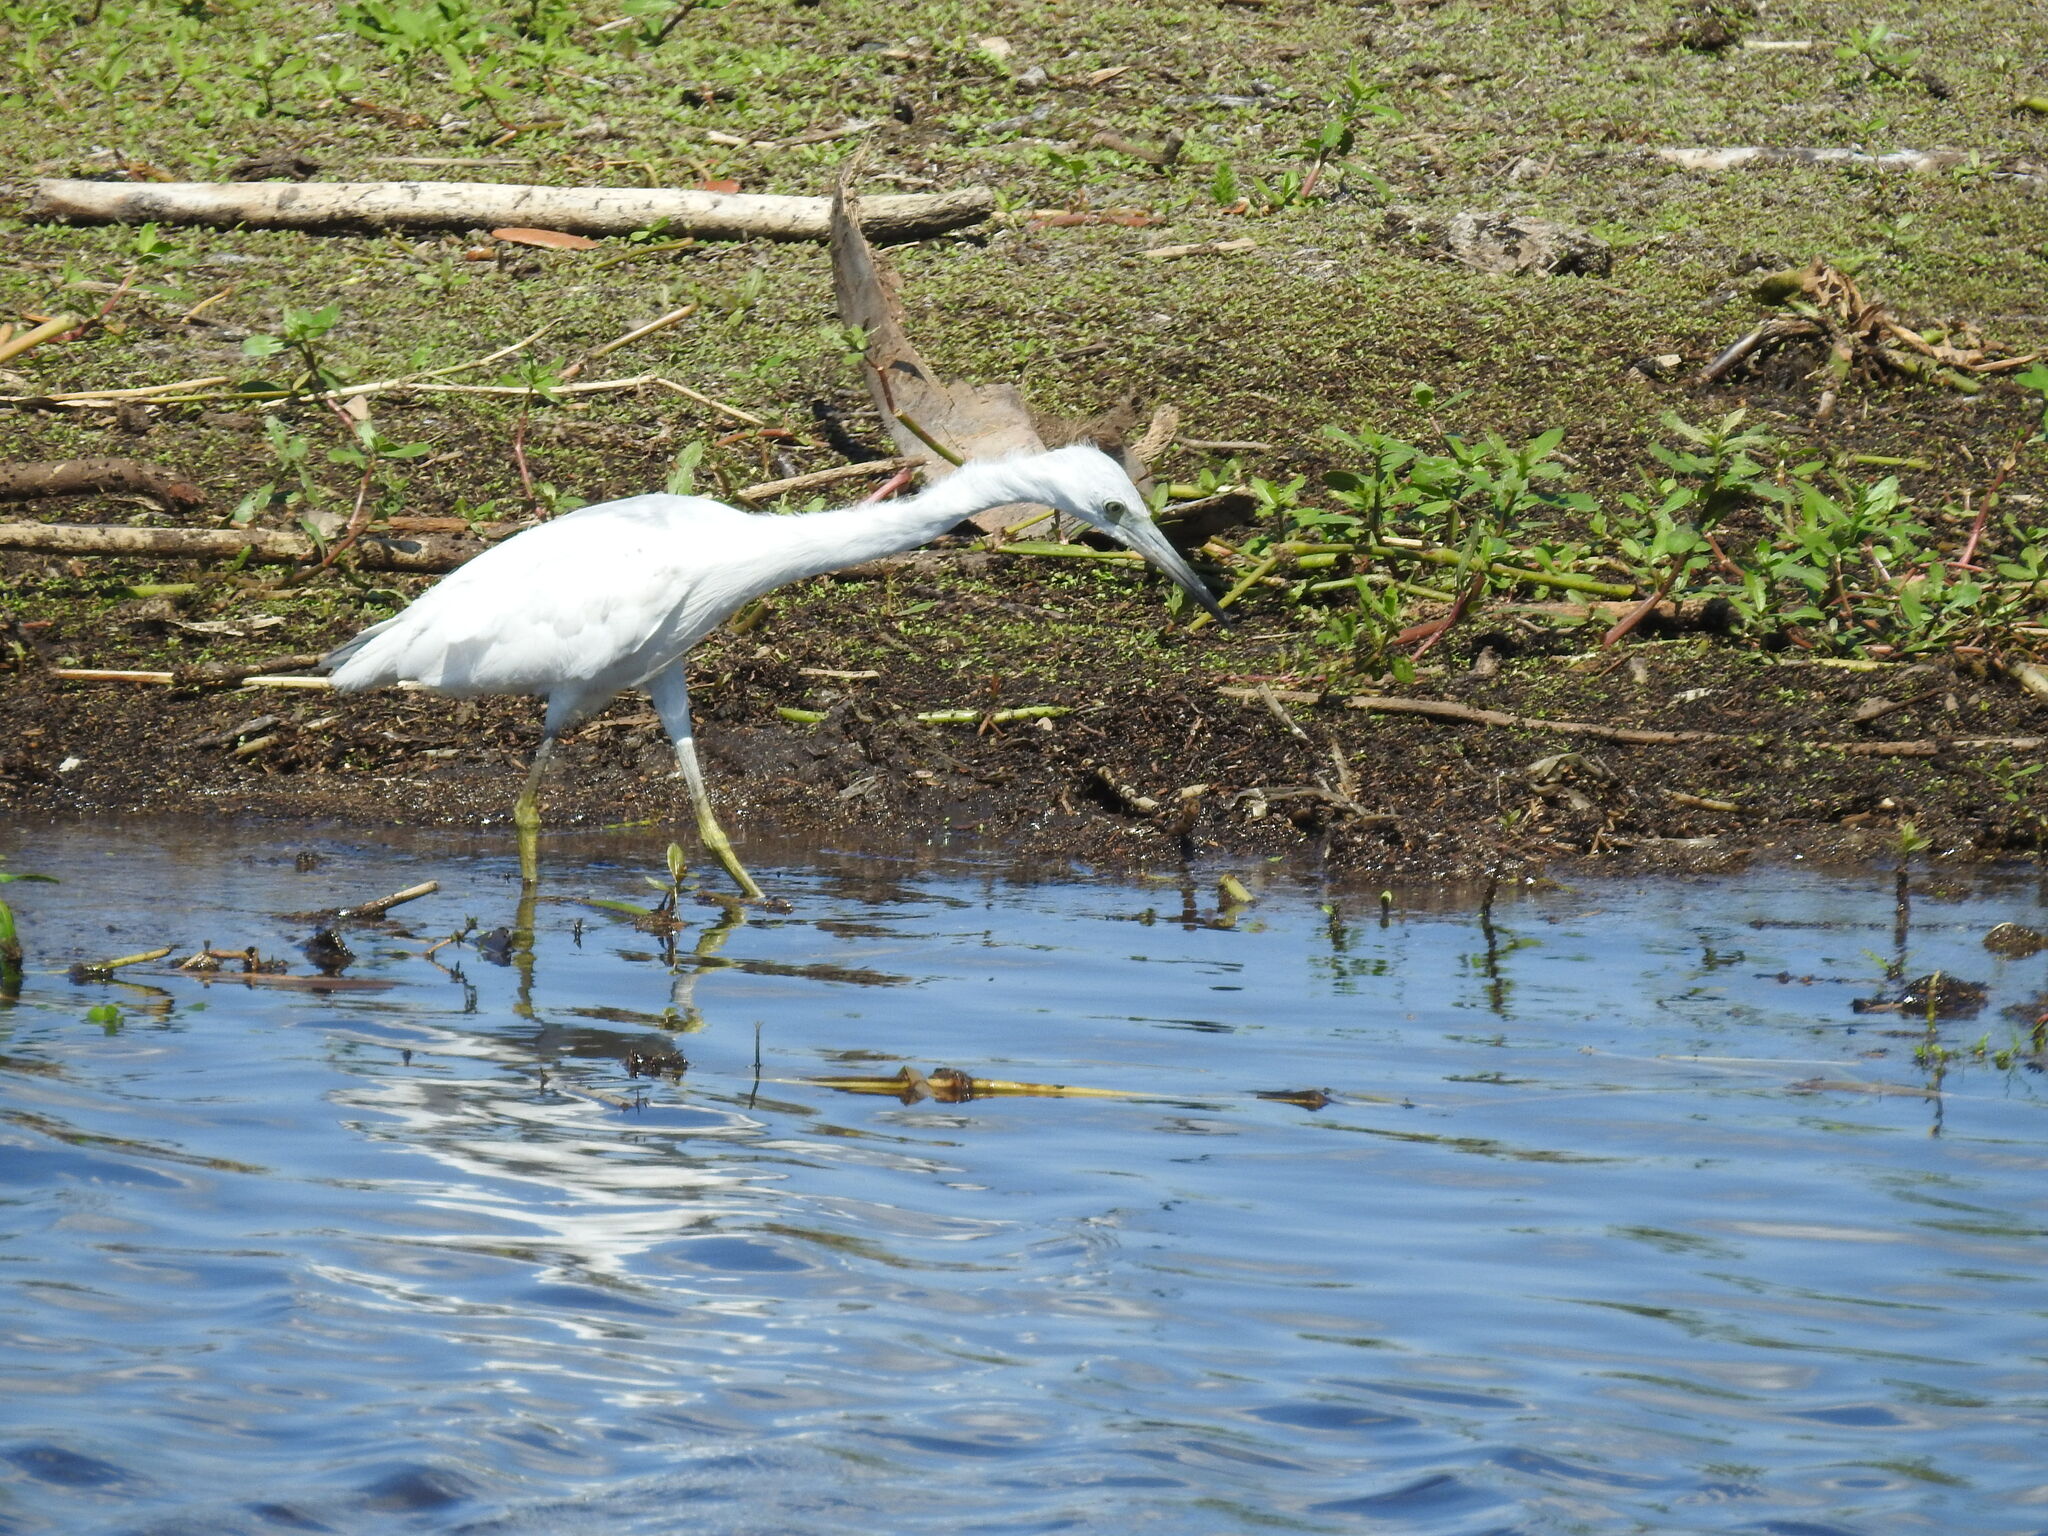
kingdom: Animalia
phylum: Chordata
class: Aves
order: Pelecaniformes
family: Ardeidae
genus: Egretta
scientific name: Egretta caerulea
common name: Little blue heron
